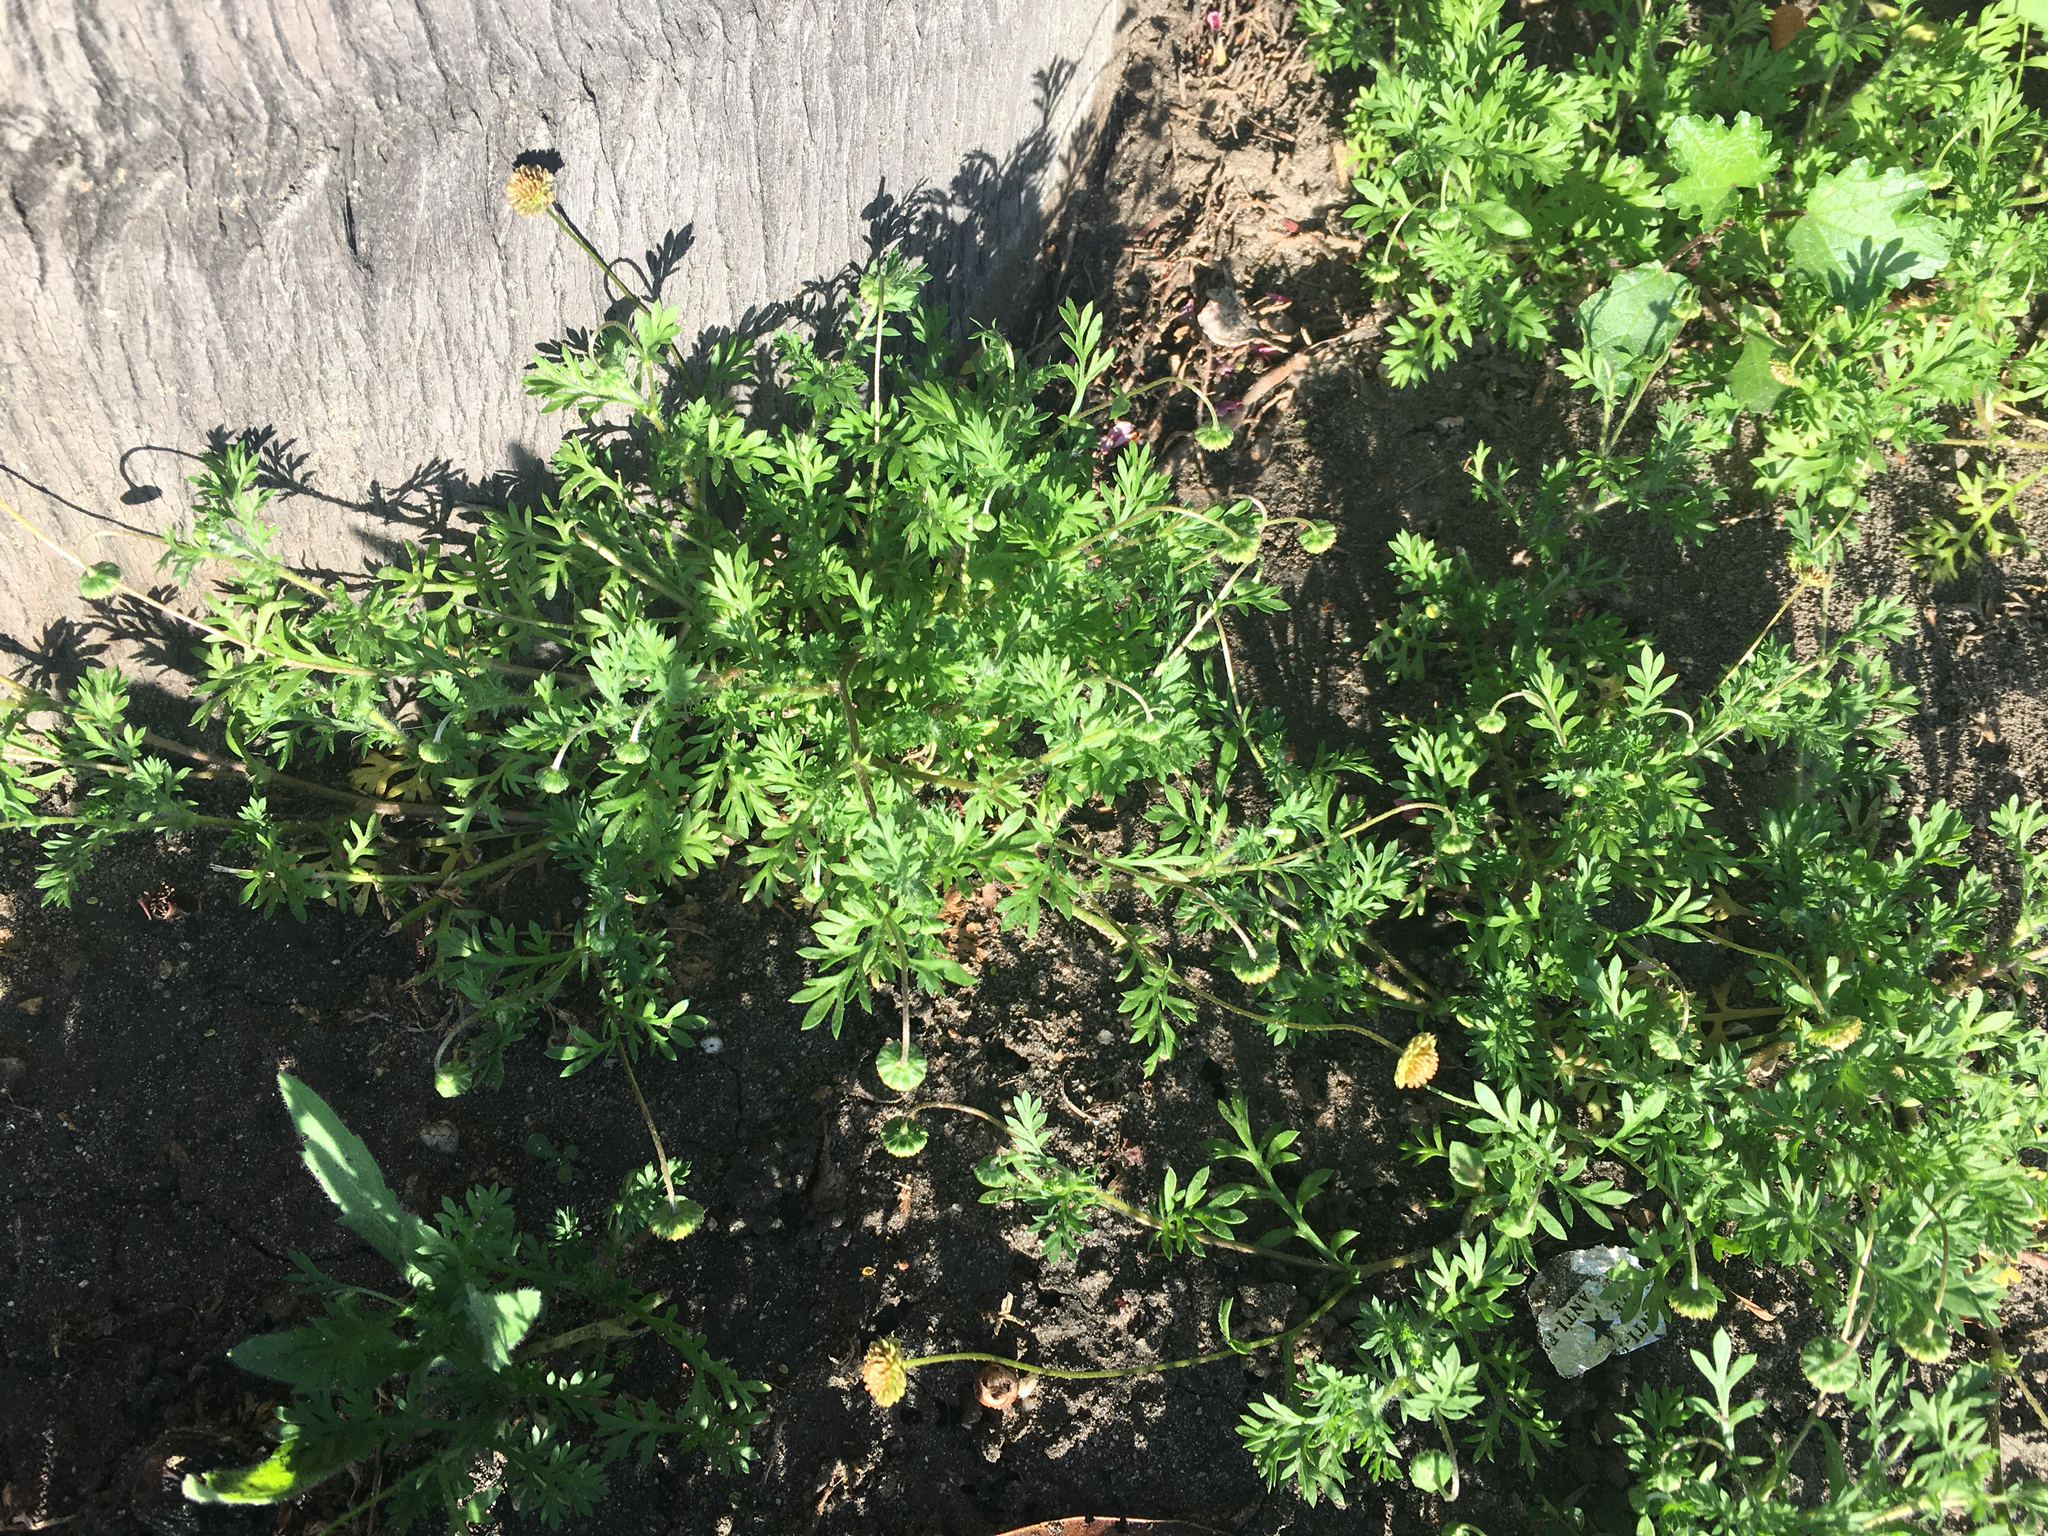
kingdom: Plantae
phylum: Tracheophyta
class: Magnoliopsida
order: Asterales
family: Asteraceae
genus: Cotula
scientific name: Cotula australis
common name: Australian waterbuttons
